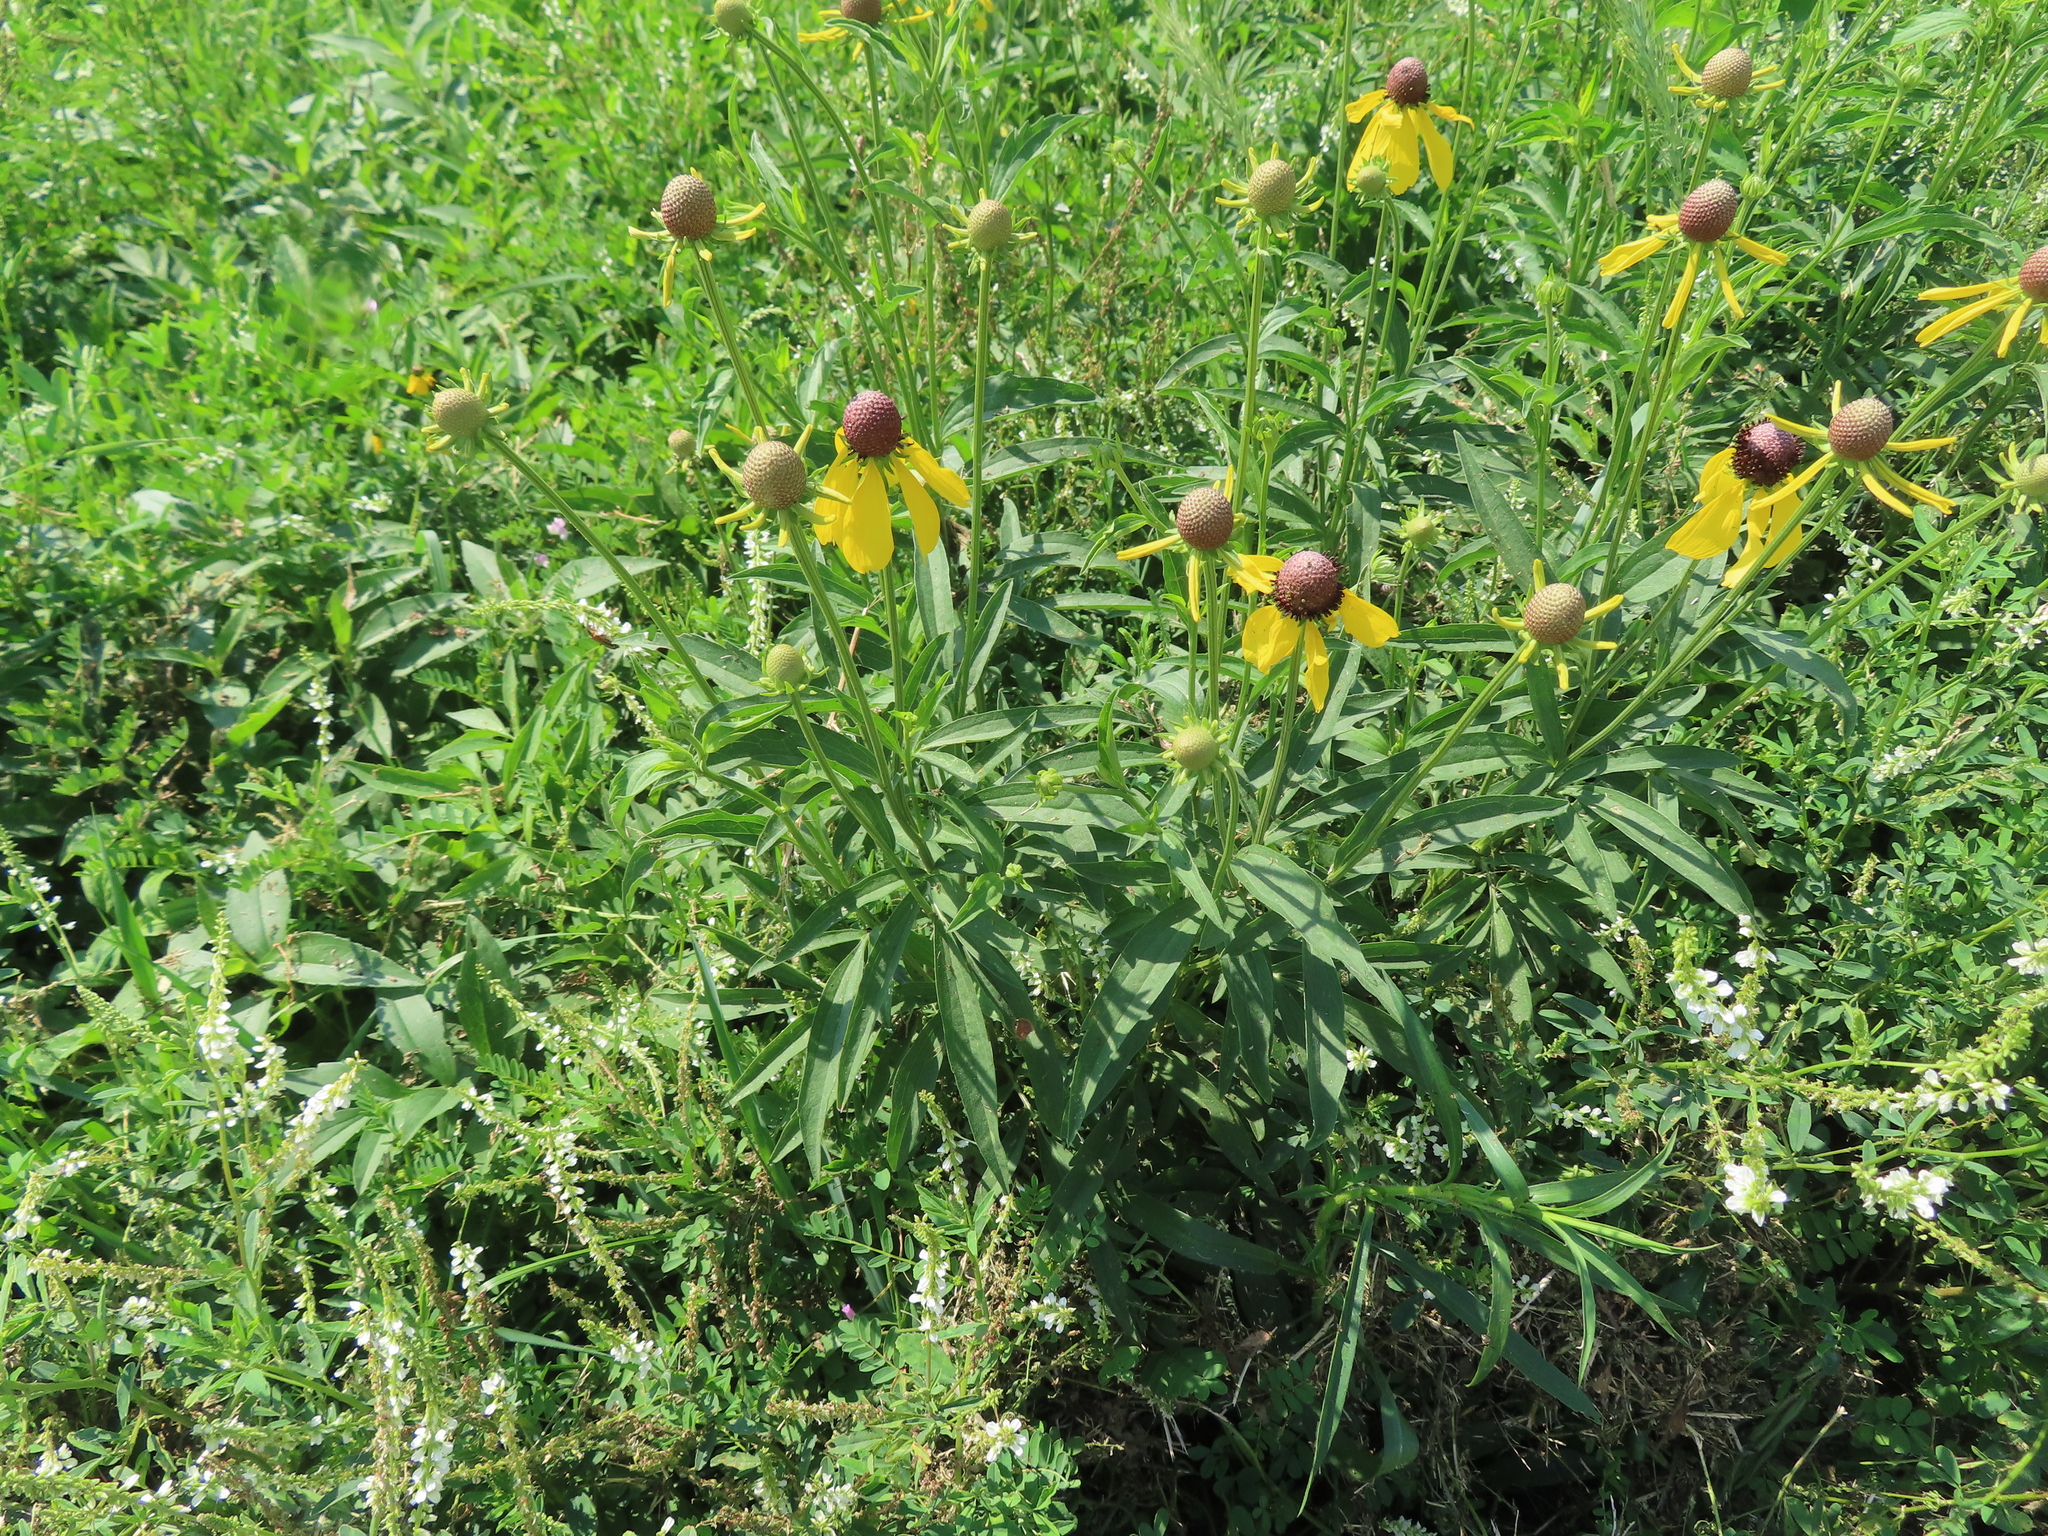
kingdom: Plantae
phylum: Tracheophyta
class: Magnoliopsida
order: Asterales
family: Asteraceae
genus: Ratibida
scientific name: Ratibida pinnata
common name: Drooping prairie-coneflower
